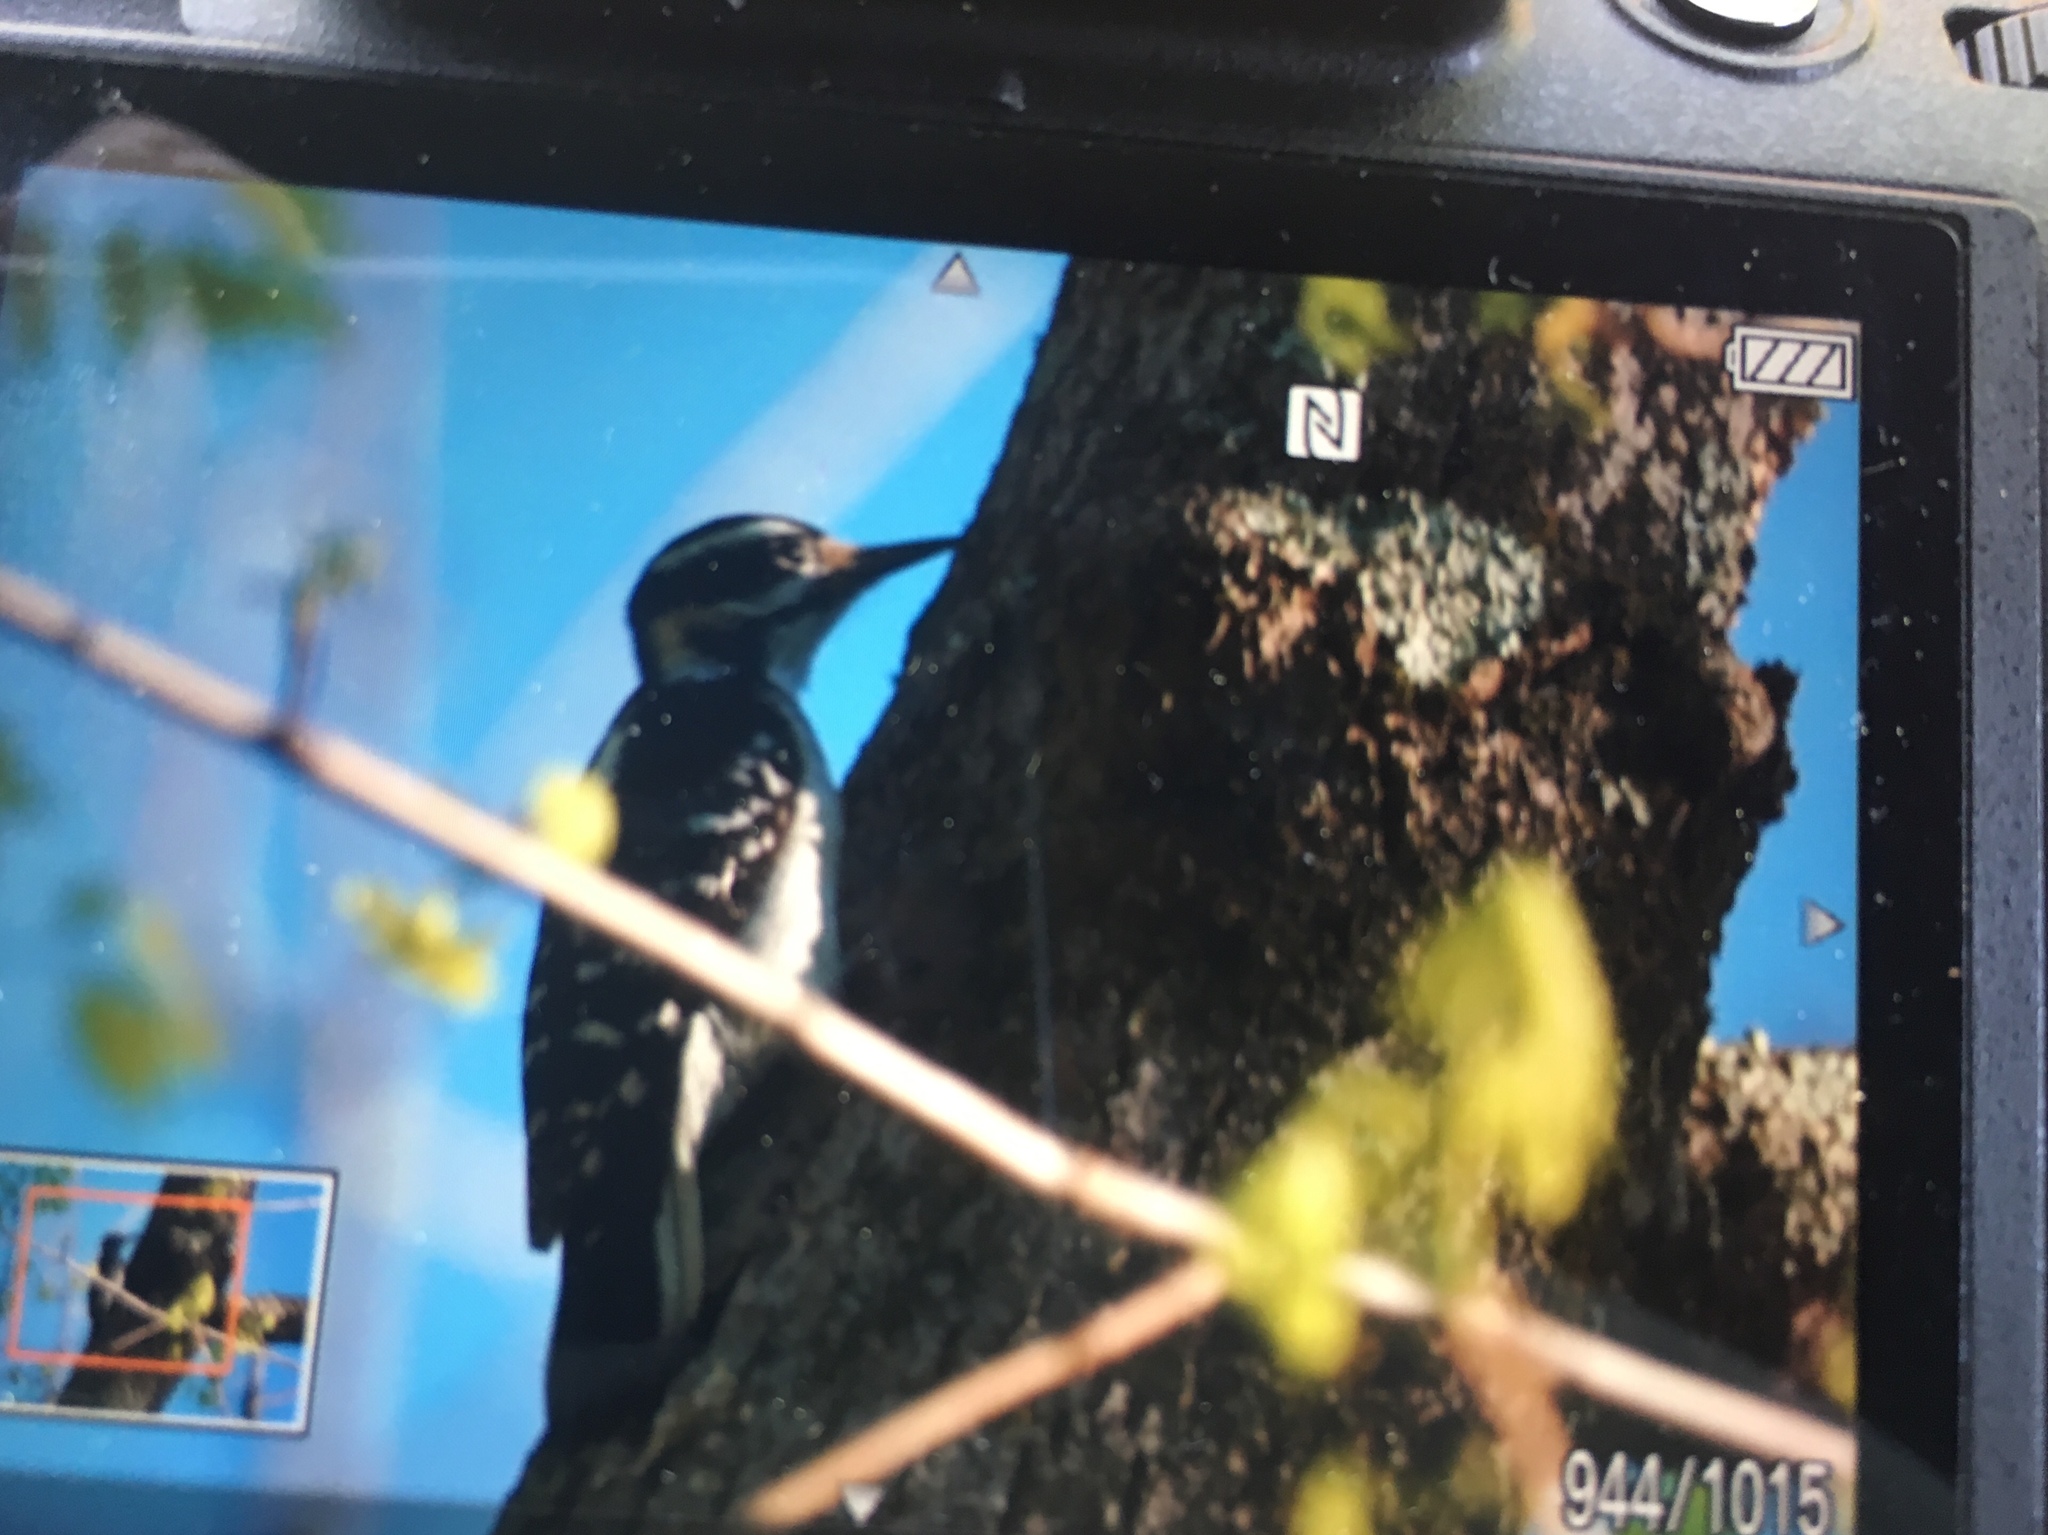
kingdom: Animalia
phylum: Chordata
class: Aves
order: Piciformes
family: Picidae
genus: Leuconotopicus
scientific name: Leuconotopicus villosus
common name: Hairy woodpecker
